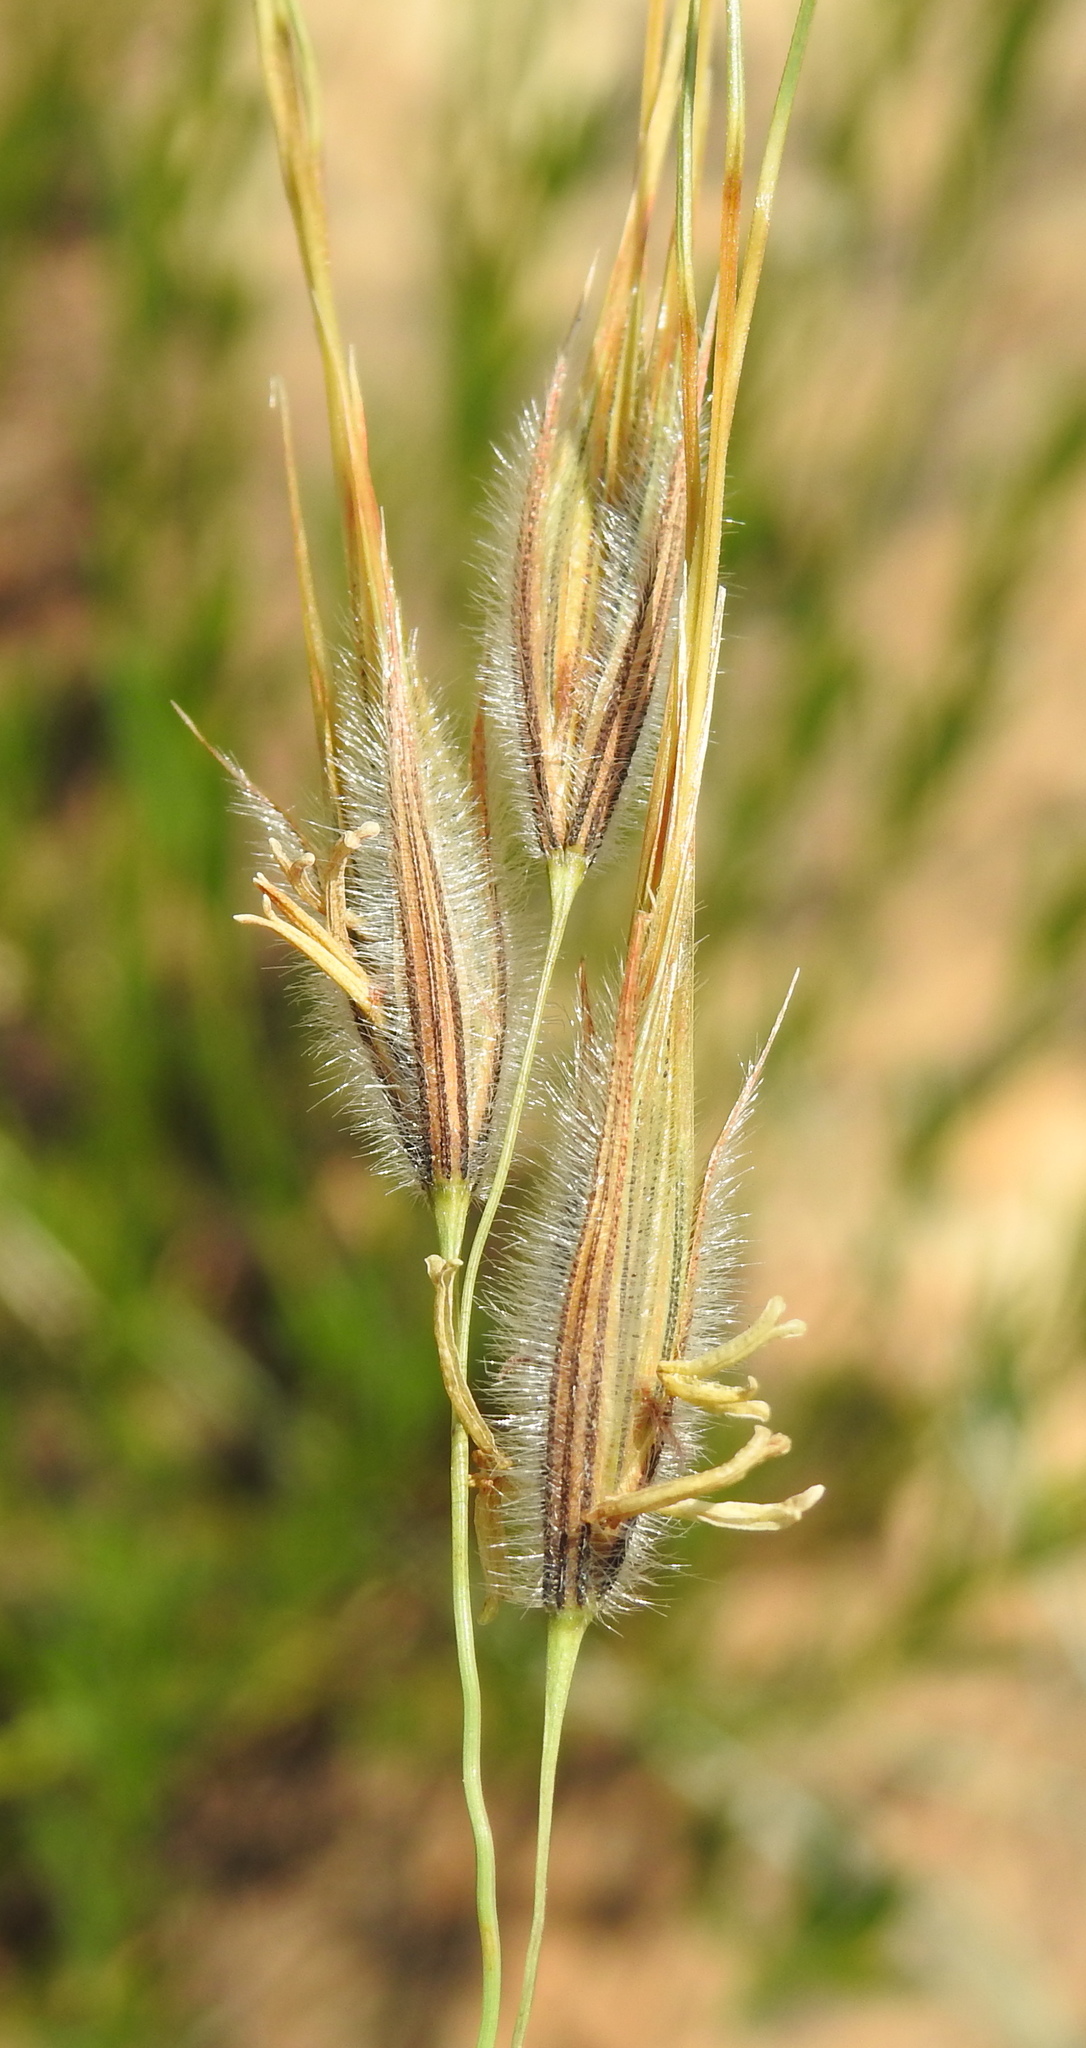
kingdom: Plantae
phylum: Tracheophyta
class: Liliopsida
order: Poales
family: Poaceae
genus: Tristachya
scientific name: Tristachya leucothrix
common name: Trident grass
